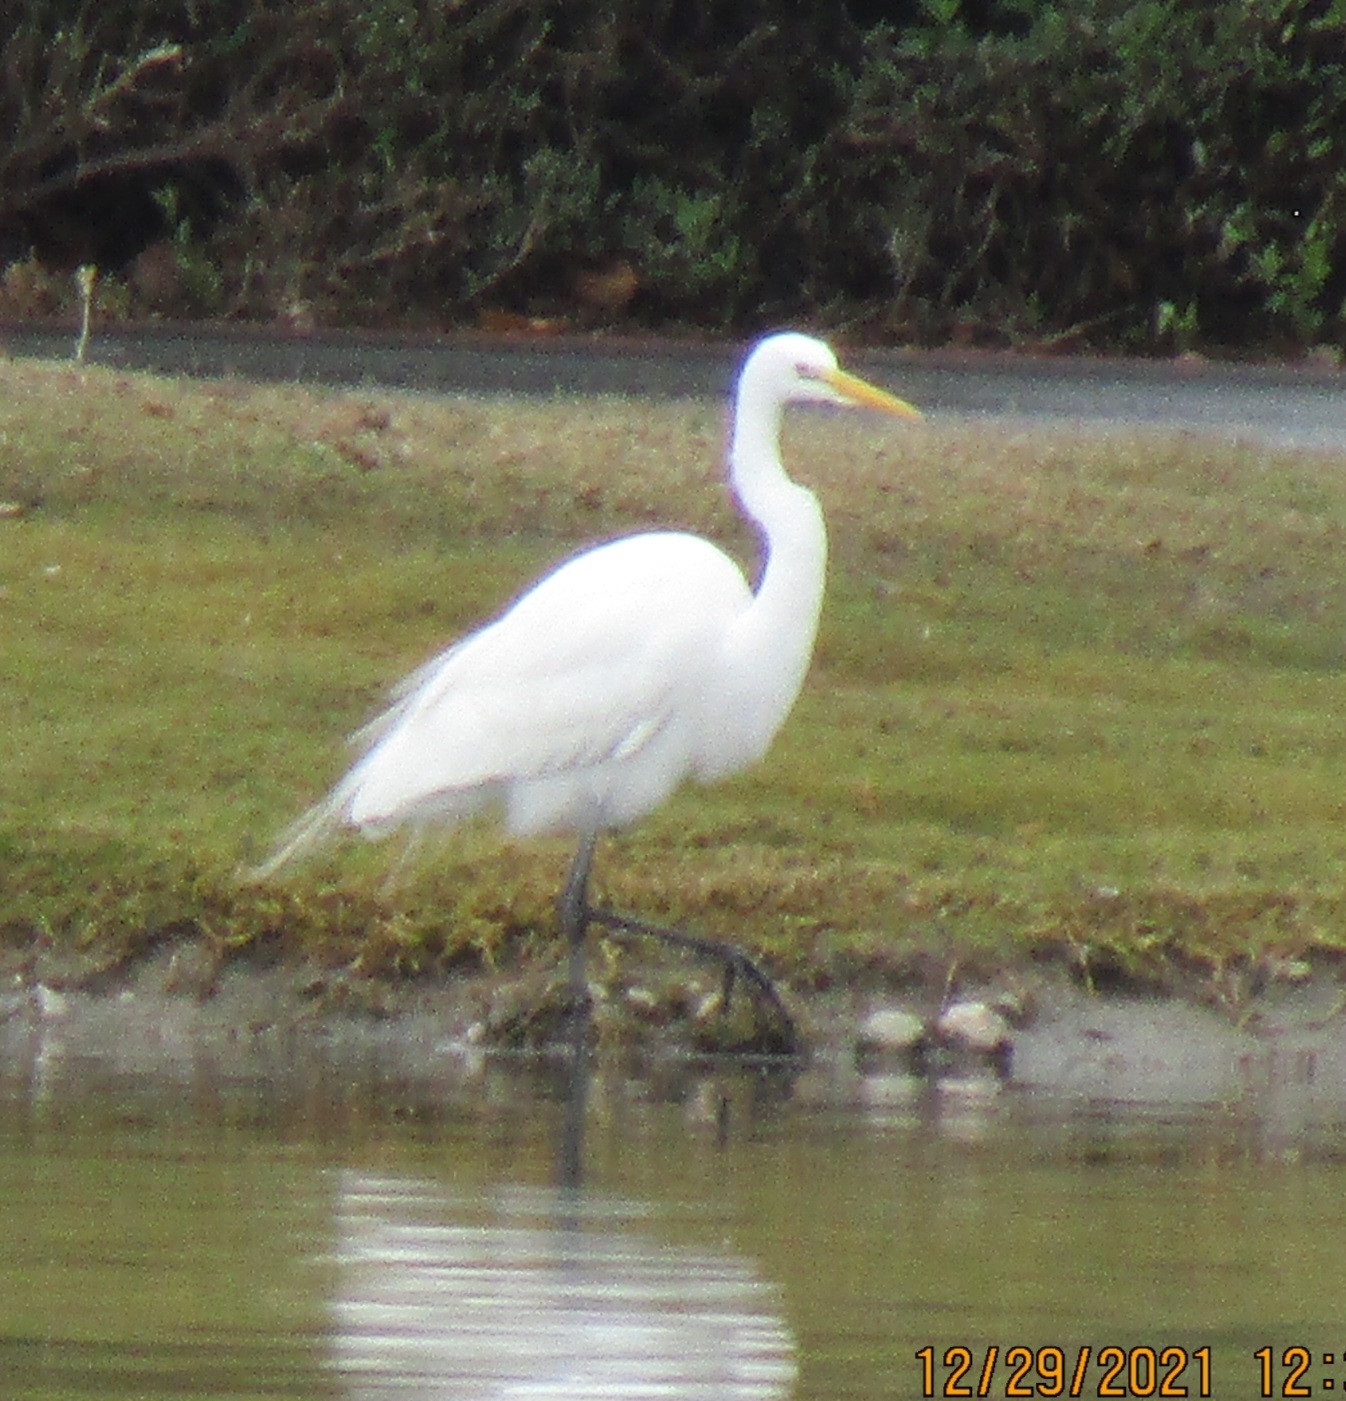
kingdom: Animalia
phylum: Chordata
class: Aves
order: Pelecaniformes
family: Ardeidae
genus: Ardea
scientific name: Ardea alba
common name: Great egret
